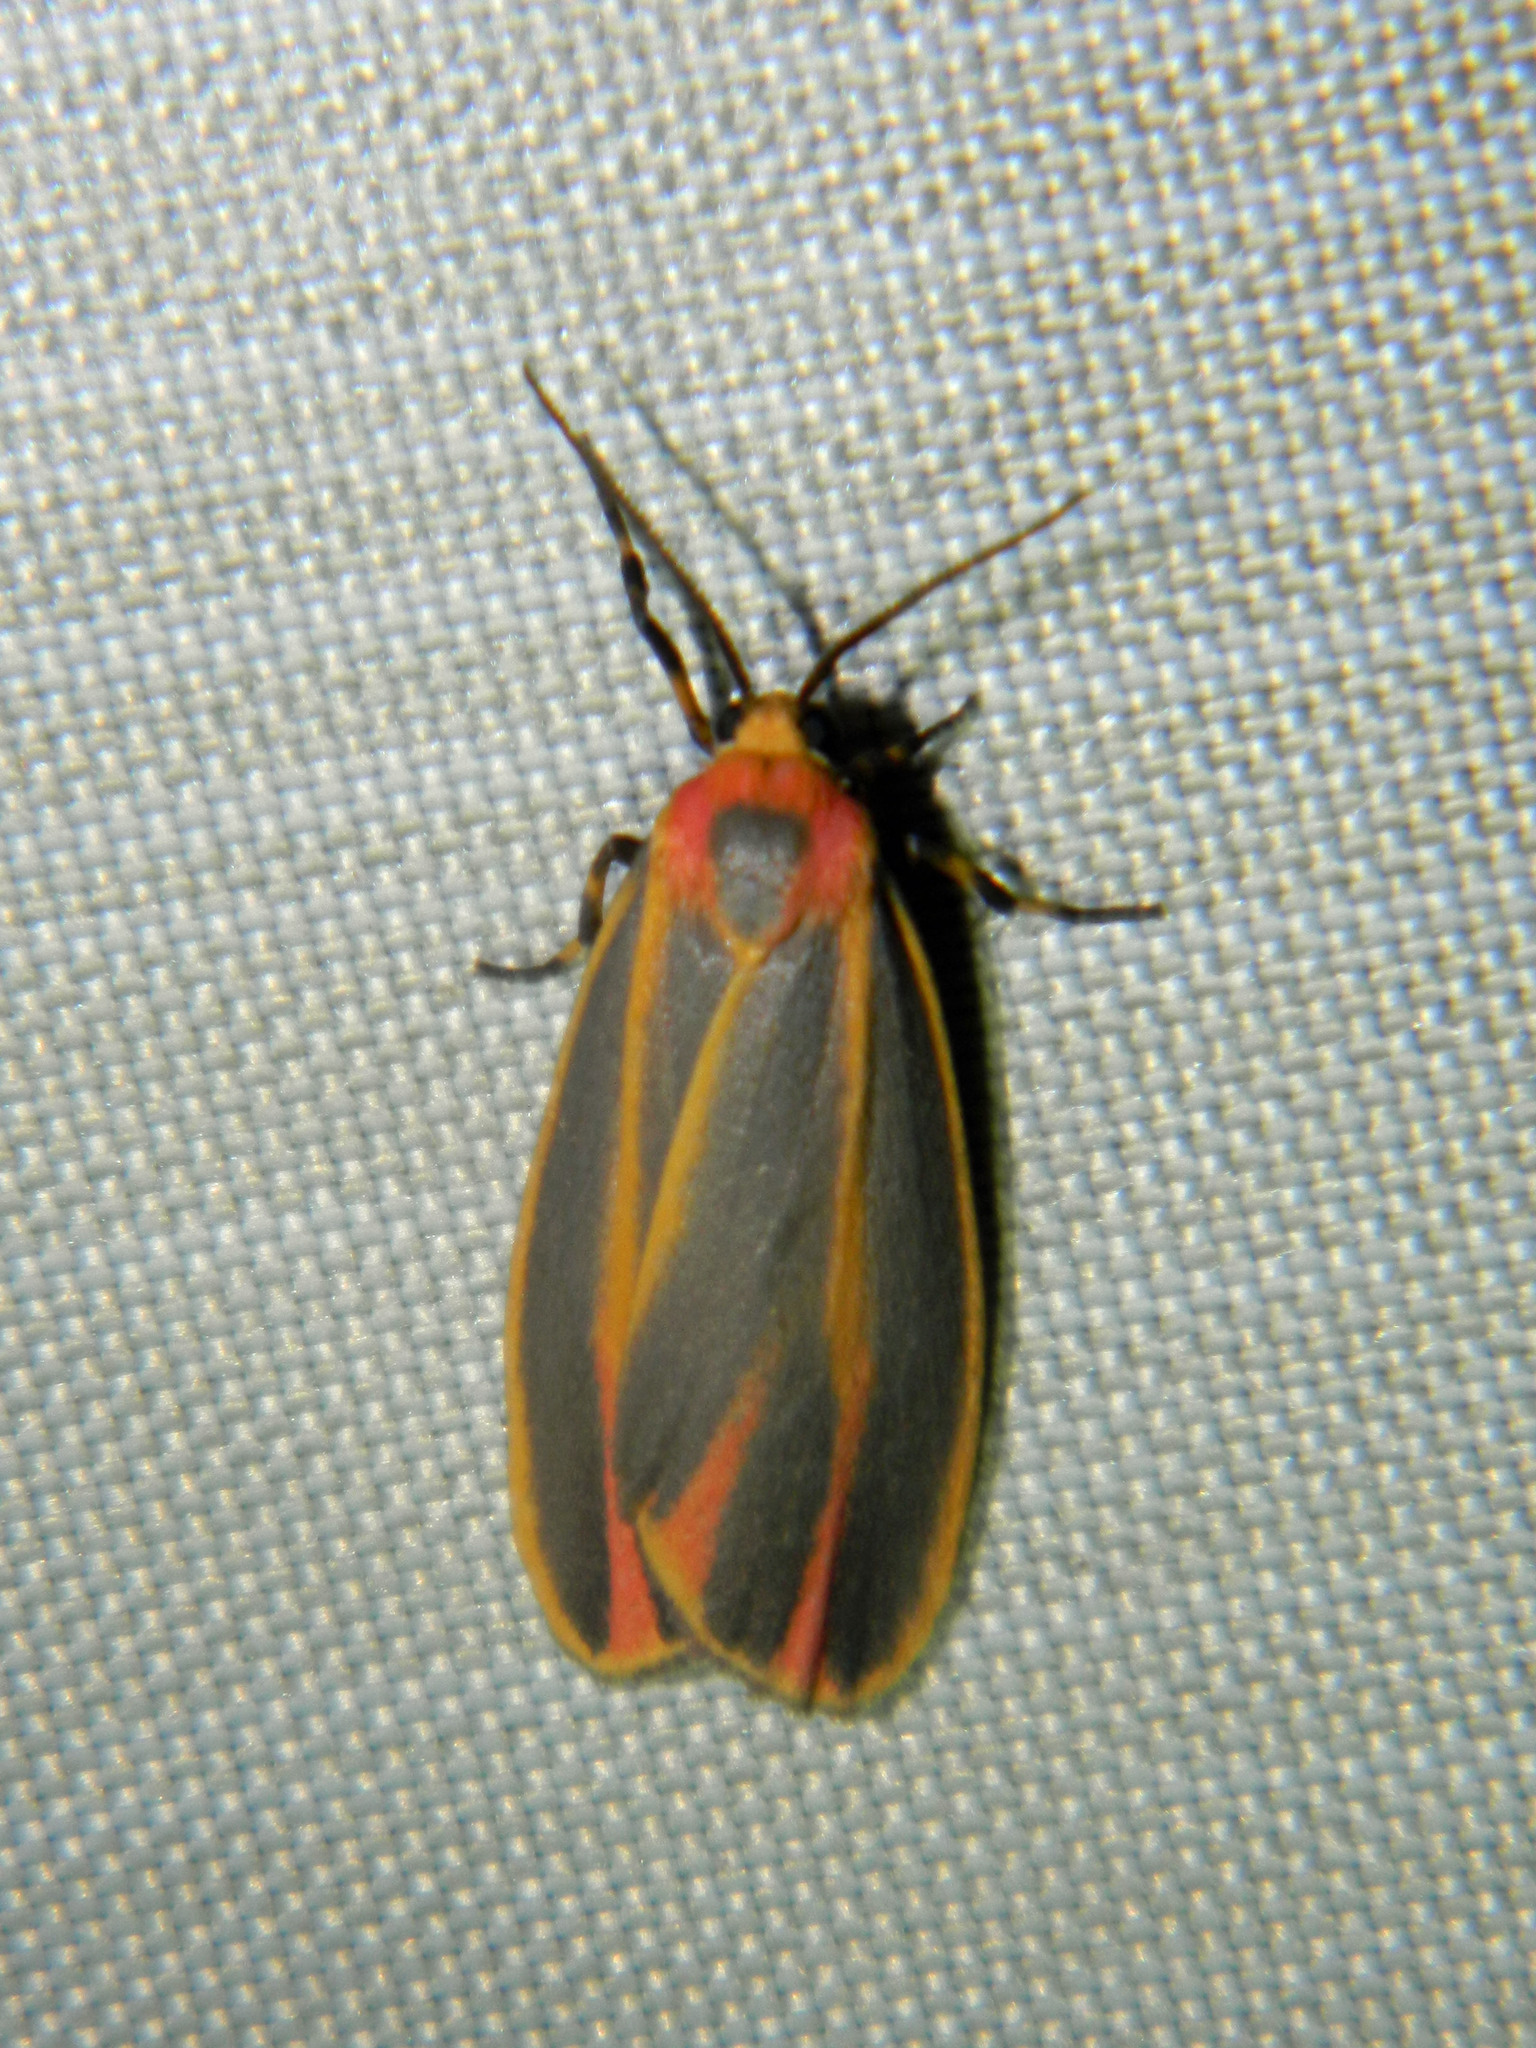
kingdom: Animalia
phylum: Arthropoda
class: Insecta
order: Lepidoptera
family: Erebidae
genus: Hypoprepia
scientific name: Hypoprepia fucosa
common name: Painted lichen moth
